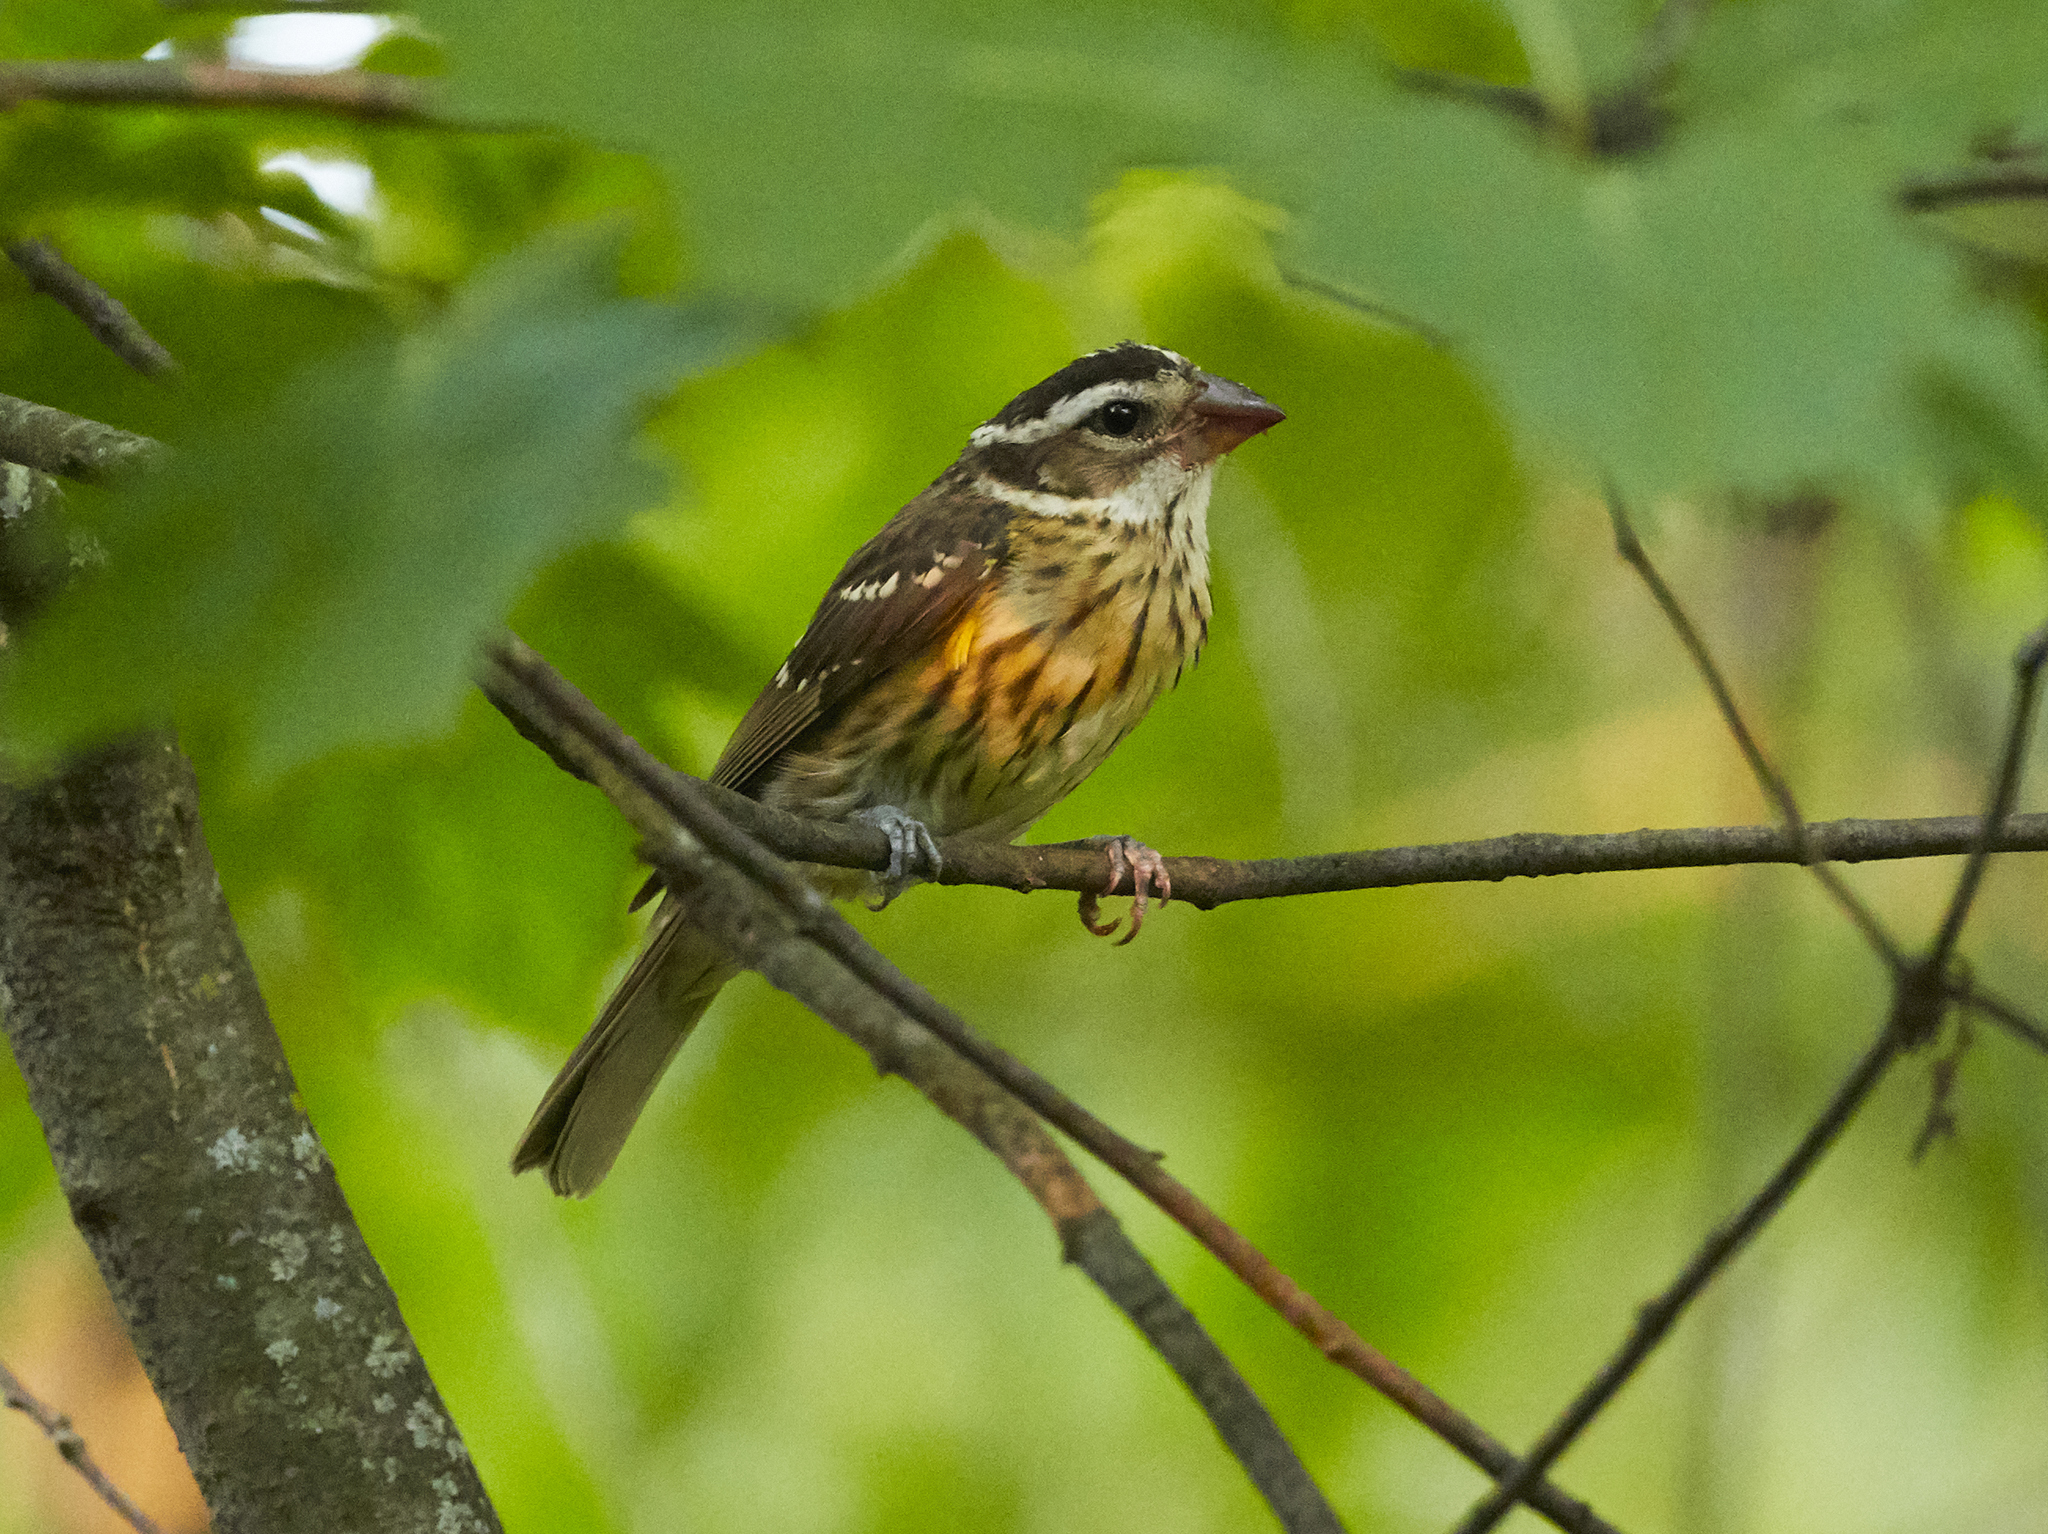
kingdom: Animalia
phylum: Chordata
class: Aves
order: Passeriformes
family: Cardinalidae
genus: Pheucticus
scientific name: Pheucticus ludovicianus
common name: Rose-breasted grosbeak
